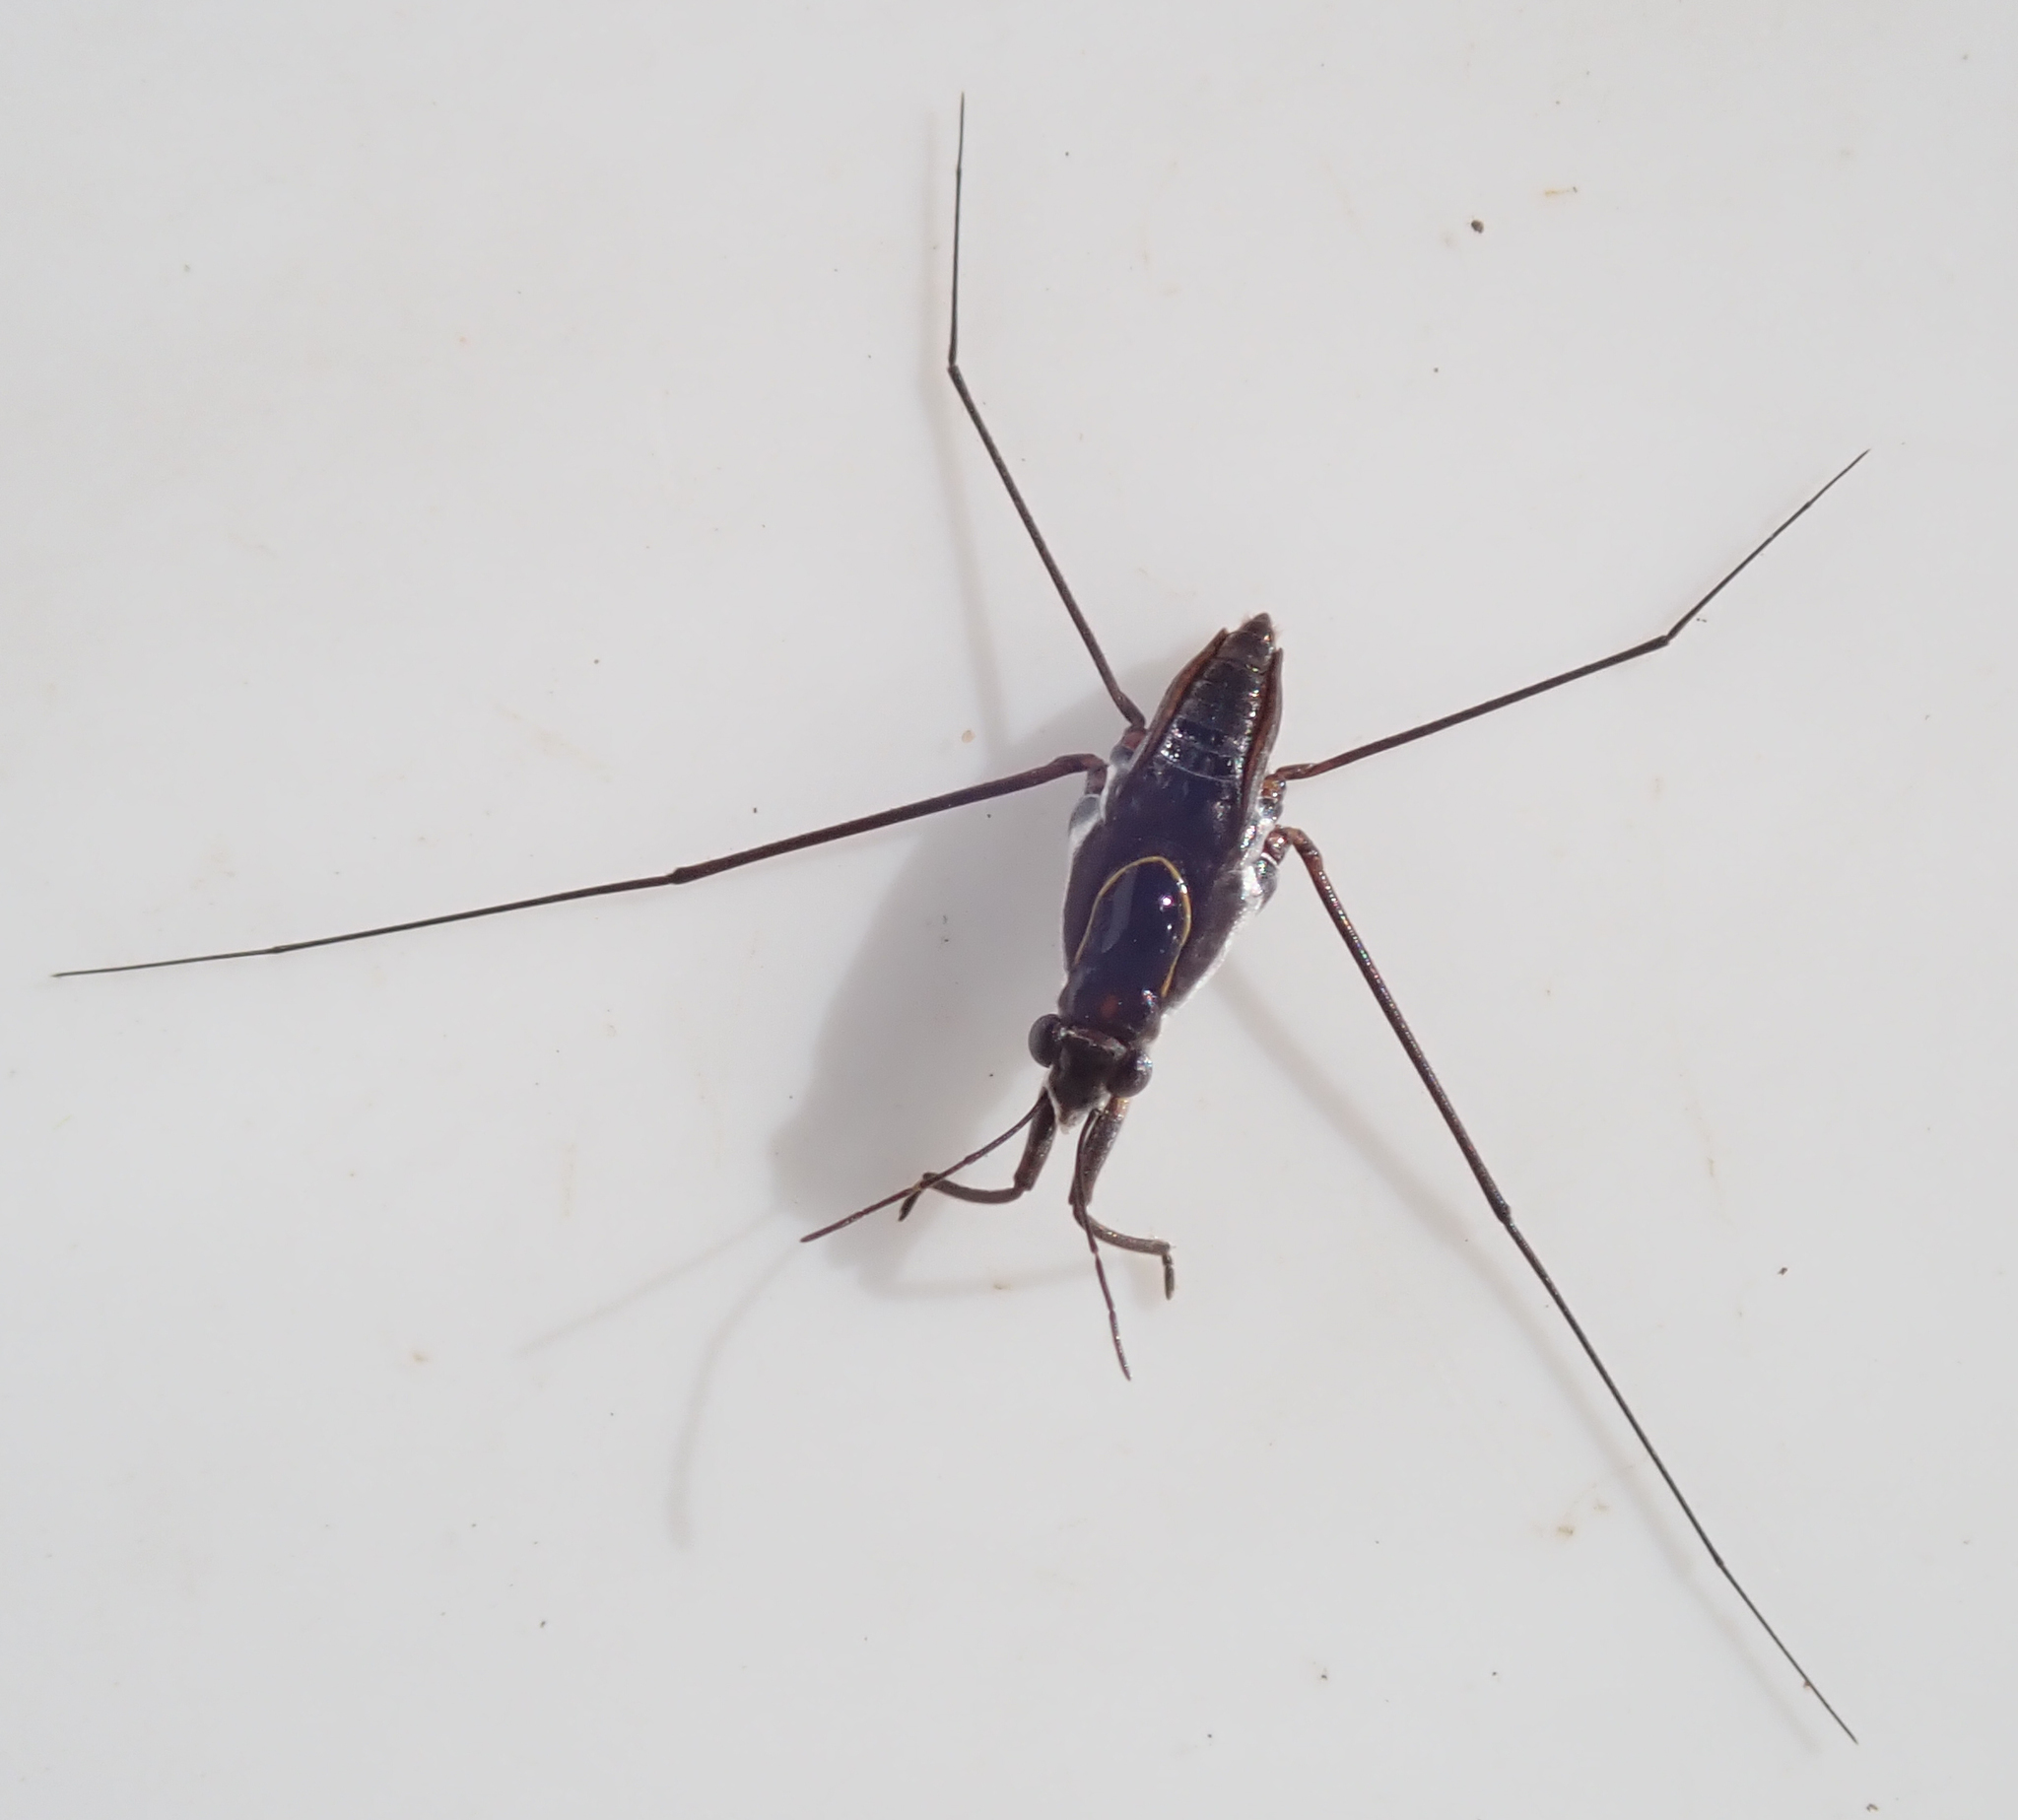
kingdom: Animalia
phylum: Arthropoda
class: Insecta
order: Hemiptera
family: Gerridae
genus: Neogerris
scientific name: Neogerris severini
